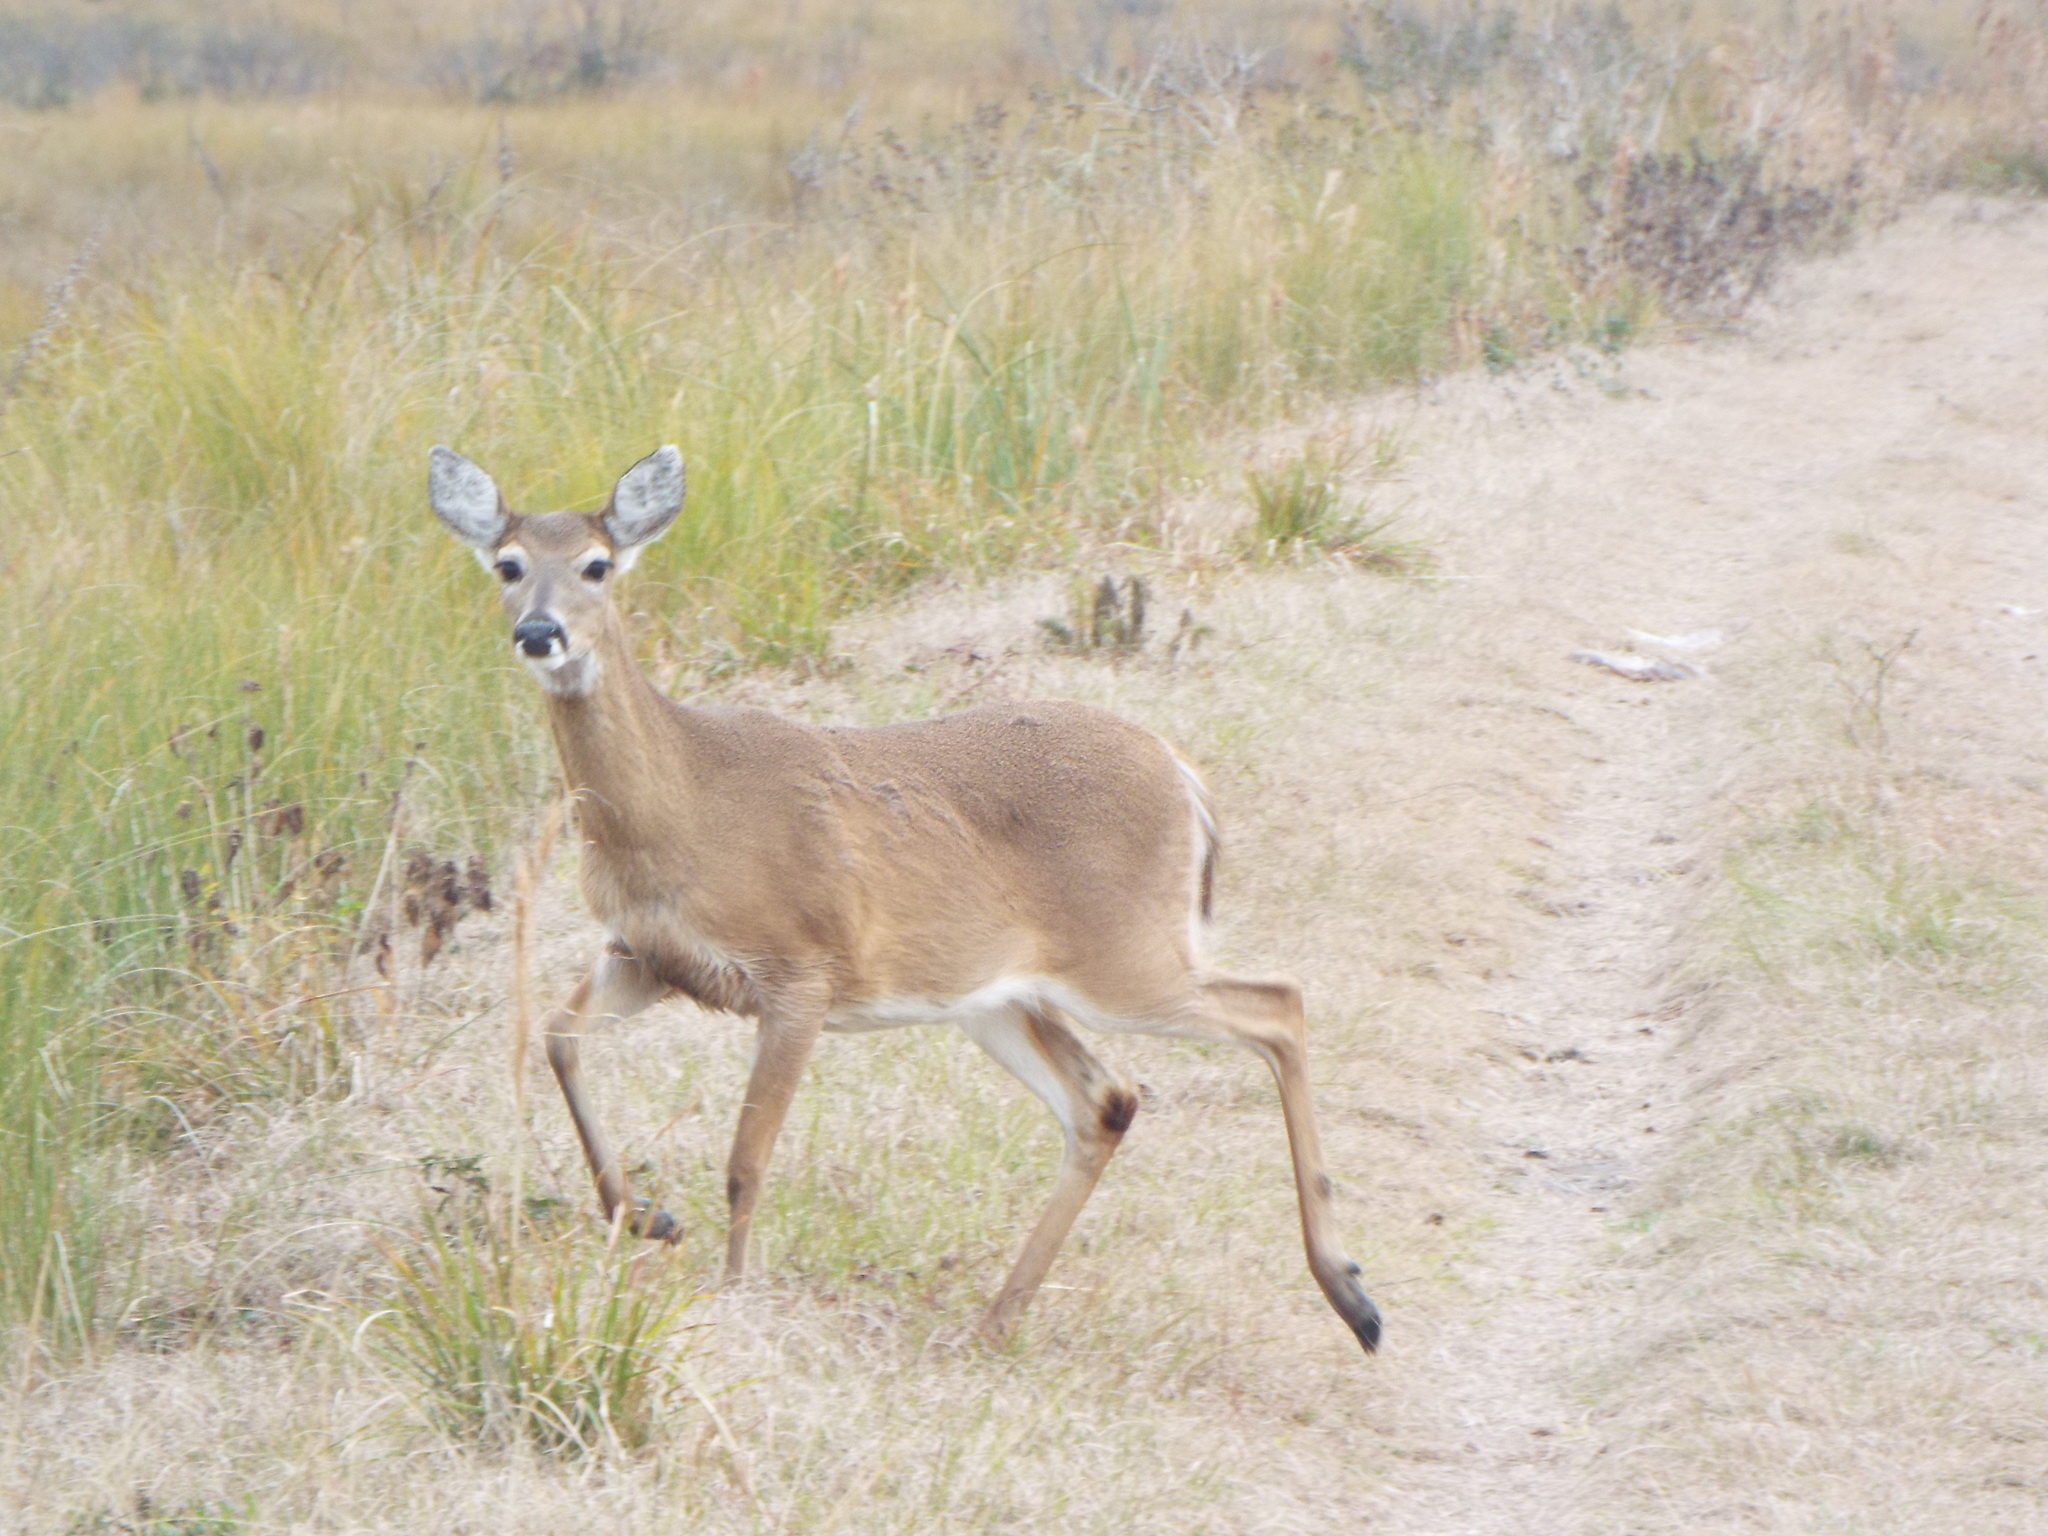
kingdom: Animalia
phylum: Chordata
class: Mammalia
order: Artiodactyla
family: Cervidae
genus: Odocoileus
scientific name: Odocoileus virginianus
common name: White-tailed deer
